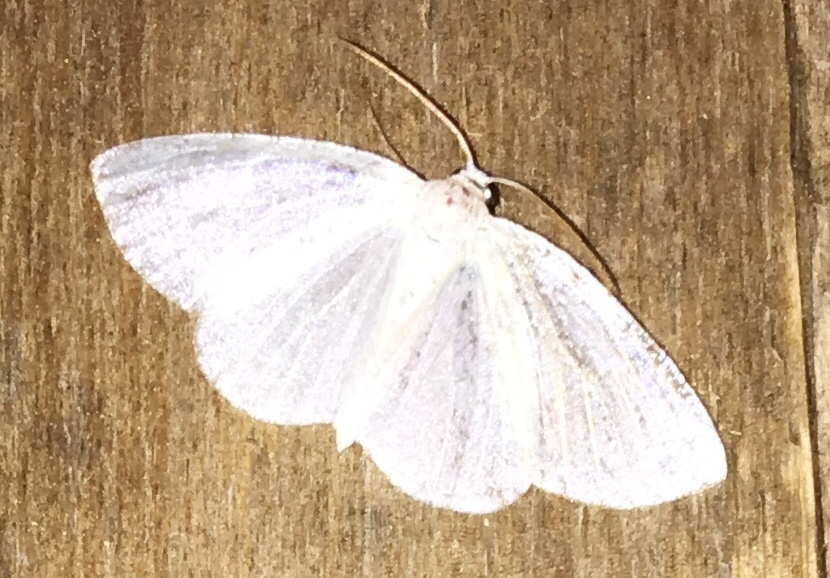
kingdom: Animalia
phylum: Arthropoda
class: Insecta
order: Lepidoptera
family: Geometridae
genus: Lomographa
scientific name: Lomographa vestaliata
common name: White spring moth
